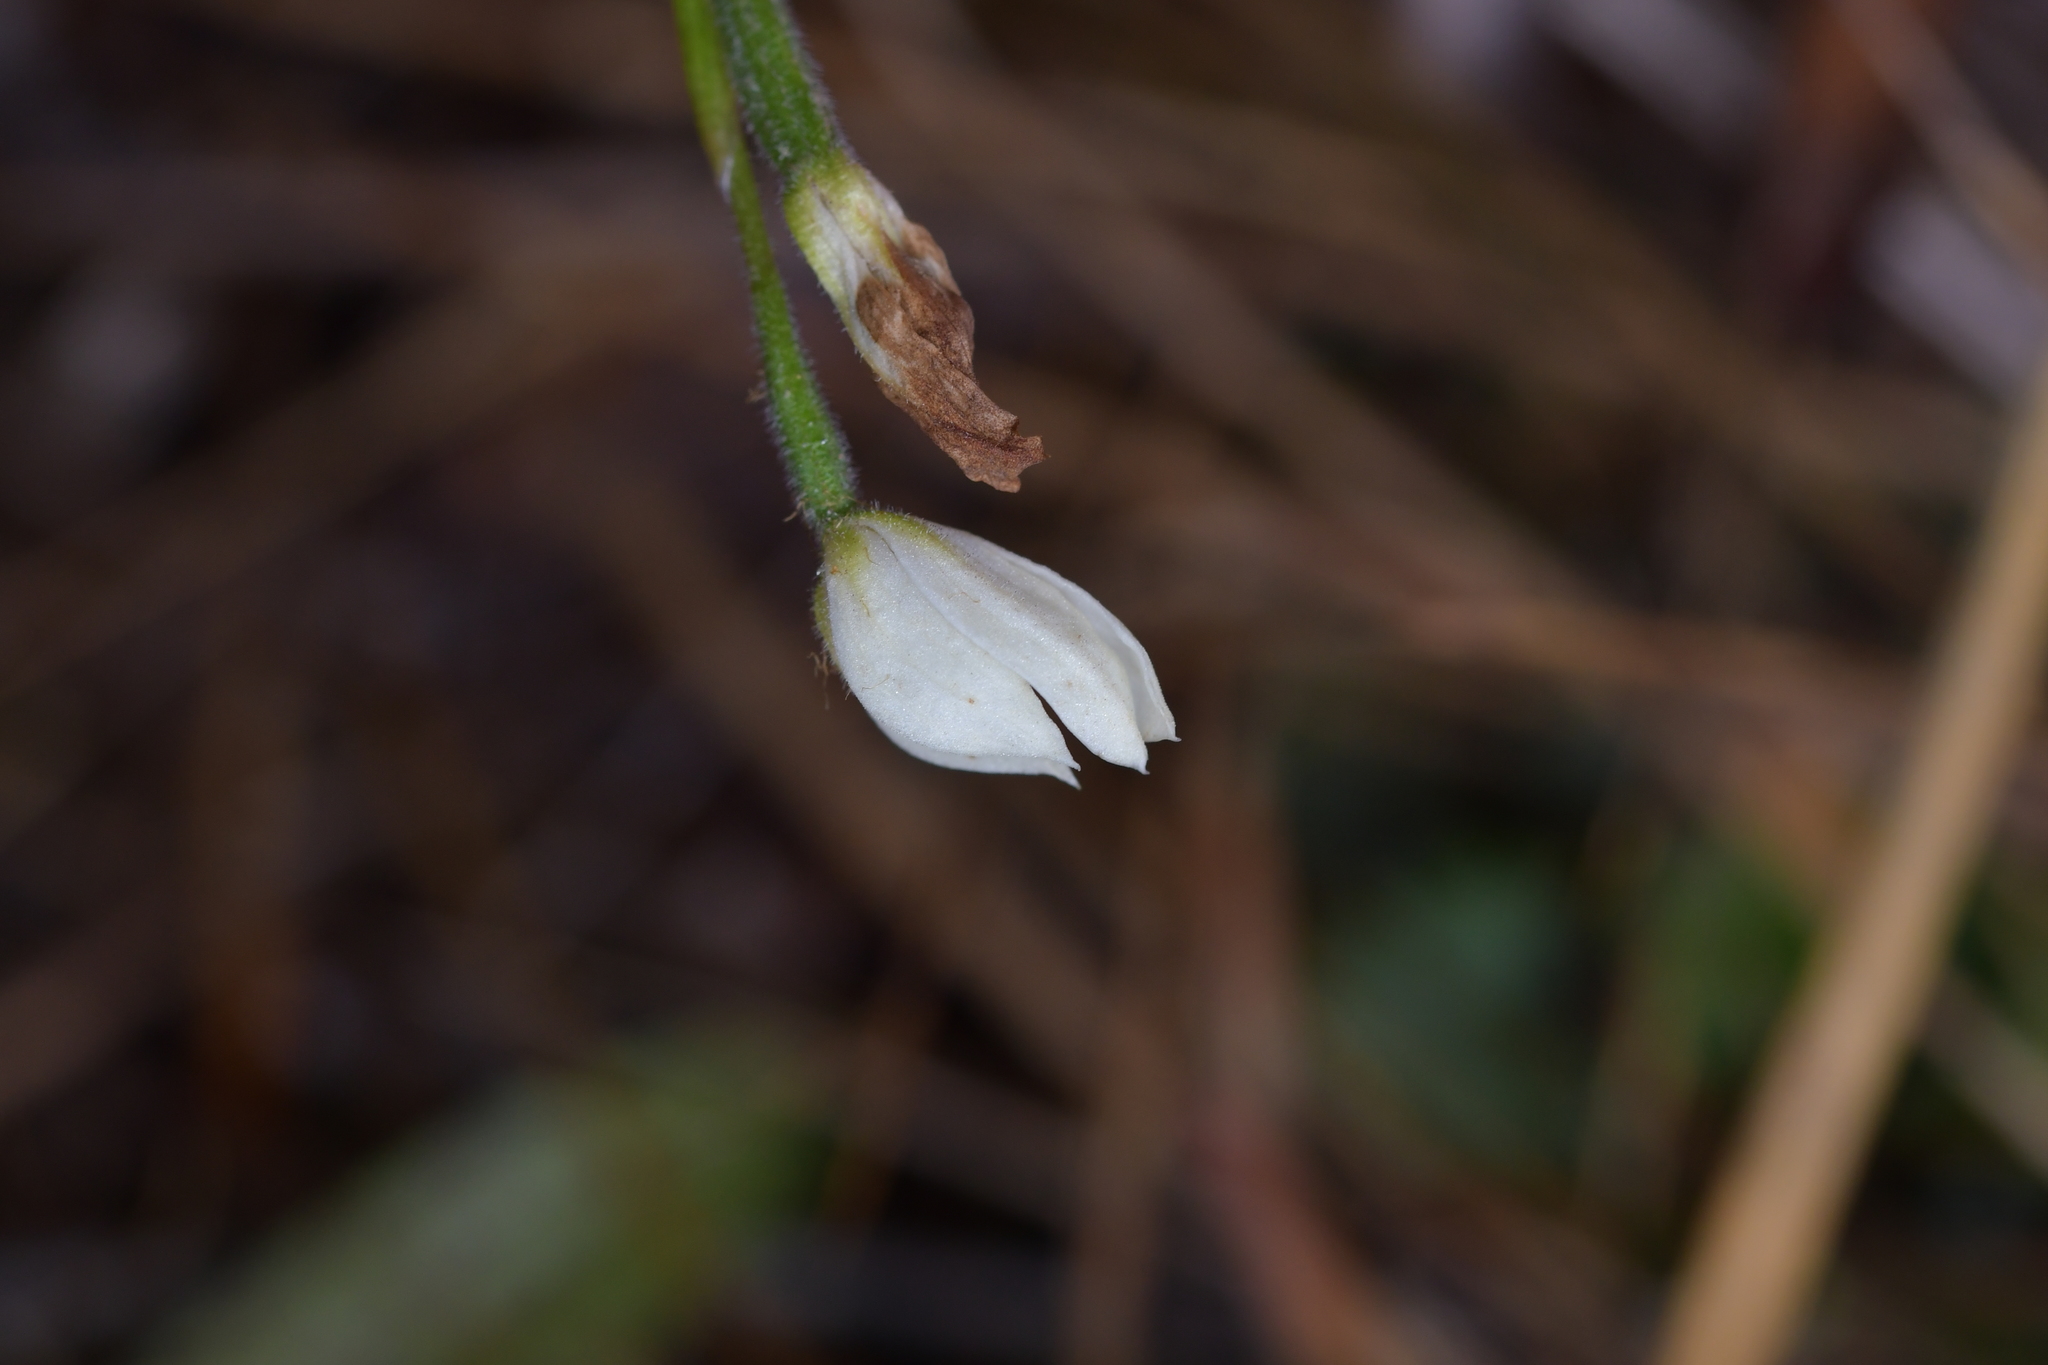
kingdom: Plantae
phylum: Tracheophyta
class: Liliopsida
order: Asparagales
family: Orchidaceae
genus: Caladenia
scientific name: Caladenia lyallii
